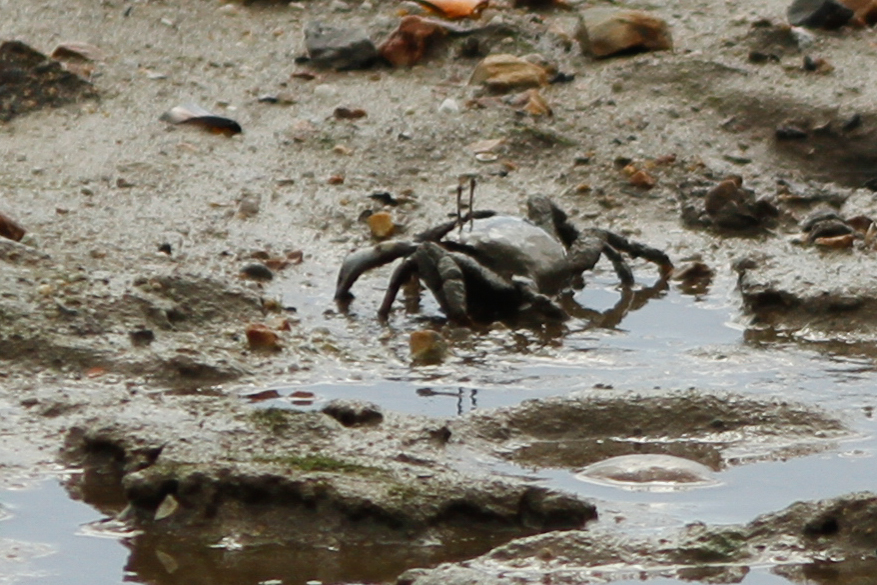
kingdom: Animalia
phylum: Arthropoda
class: Malacostraca
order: Decapoda
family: Macrophthalmidae
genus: Venitus
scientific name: Venitus latreillei
